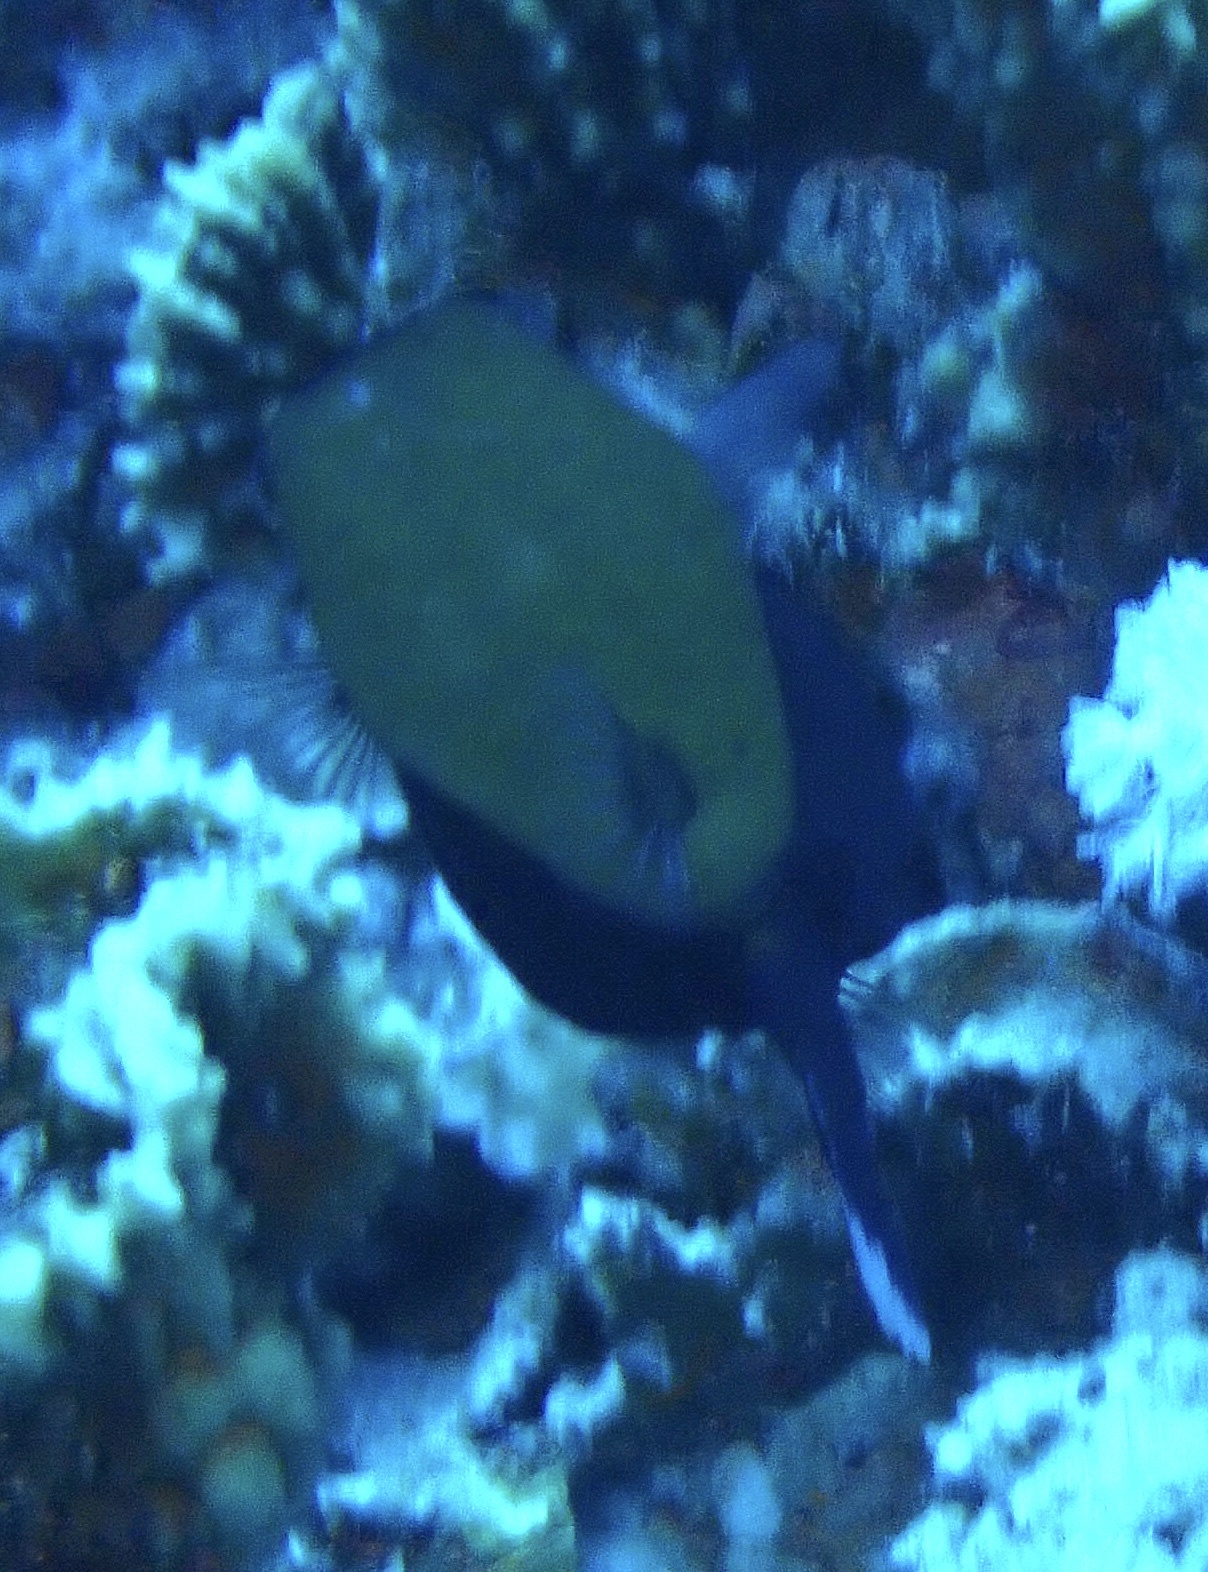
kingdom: Animalia
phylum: Chordata
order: Tetraodontiformes
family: Ostraciidae
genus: Ostracion
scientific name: Ostracion cyanurus
